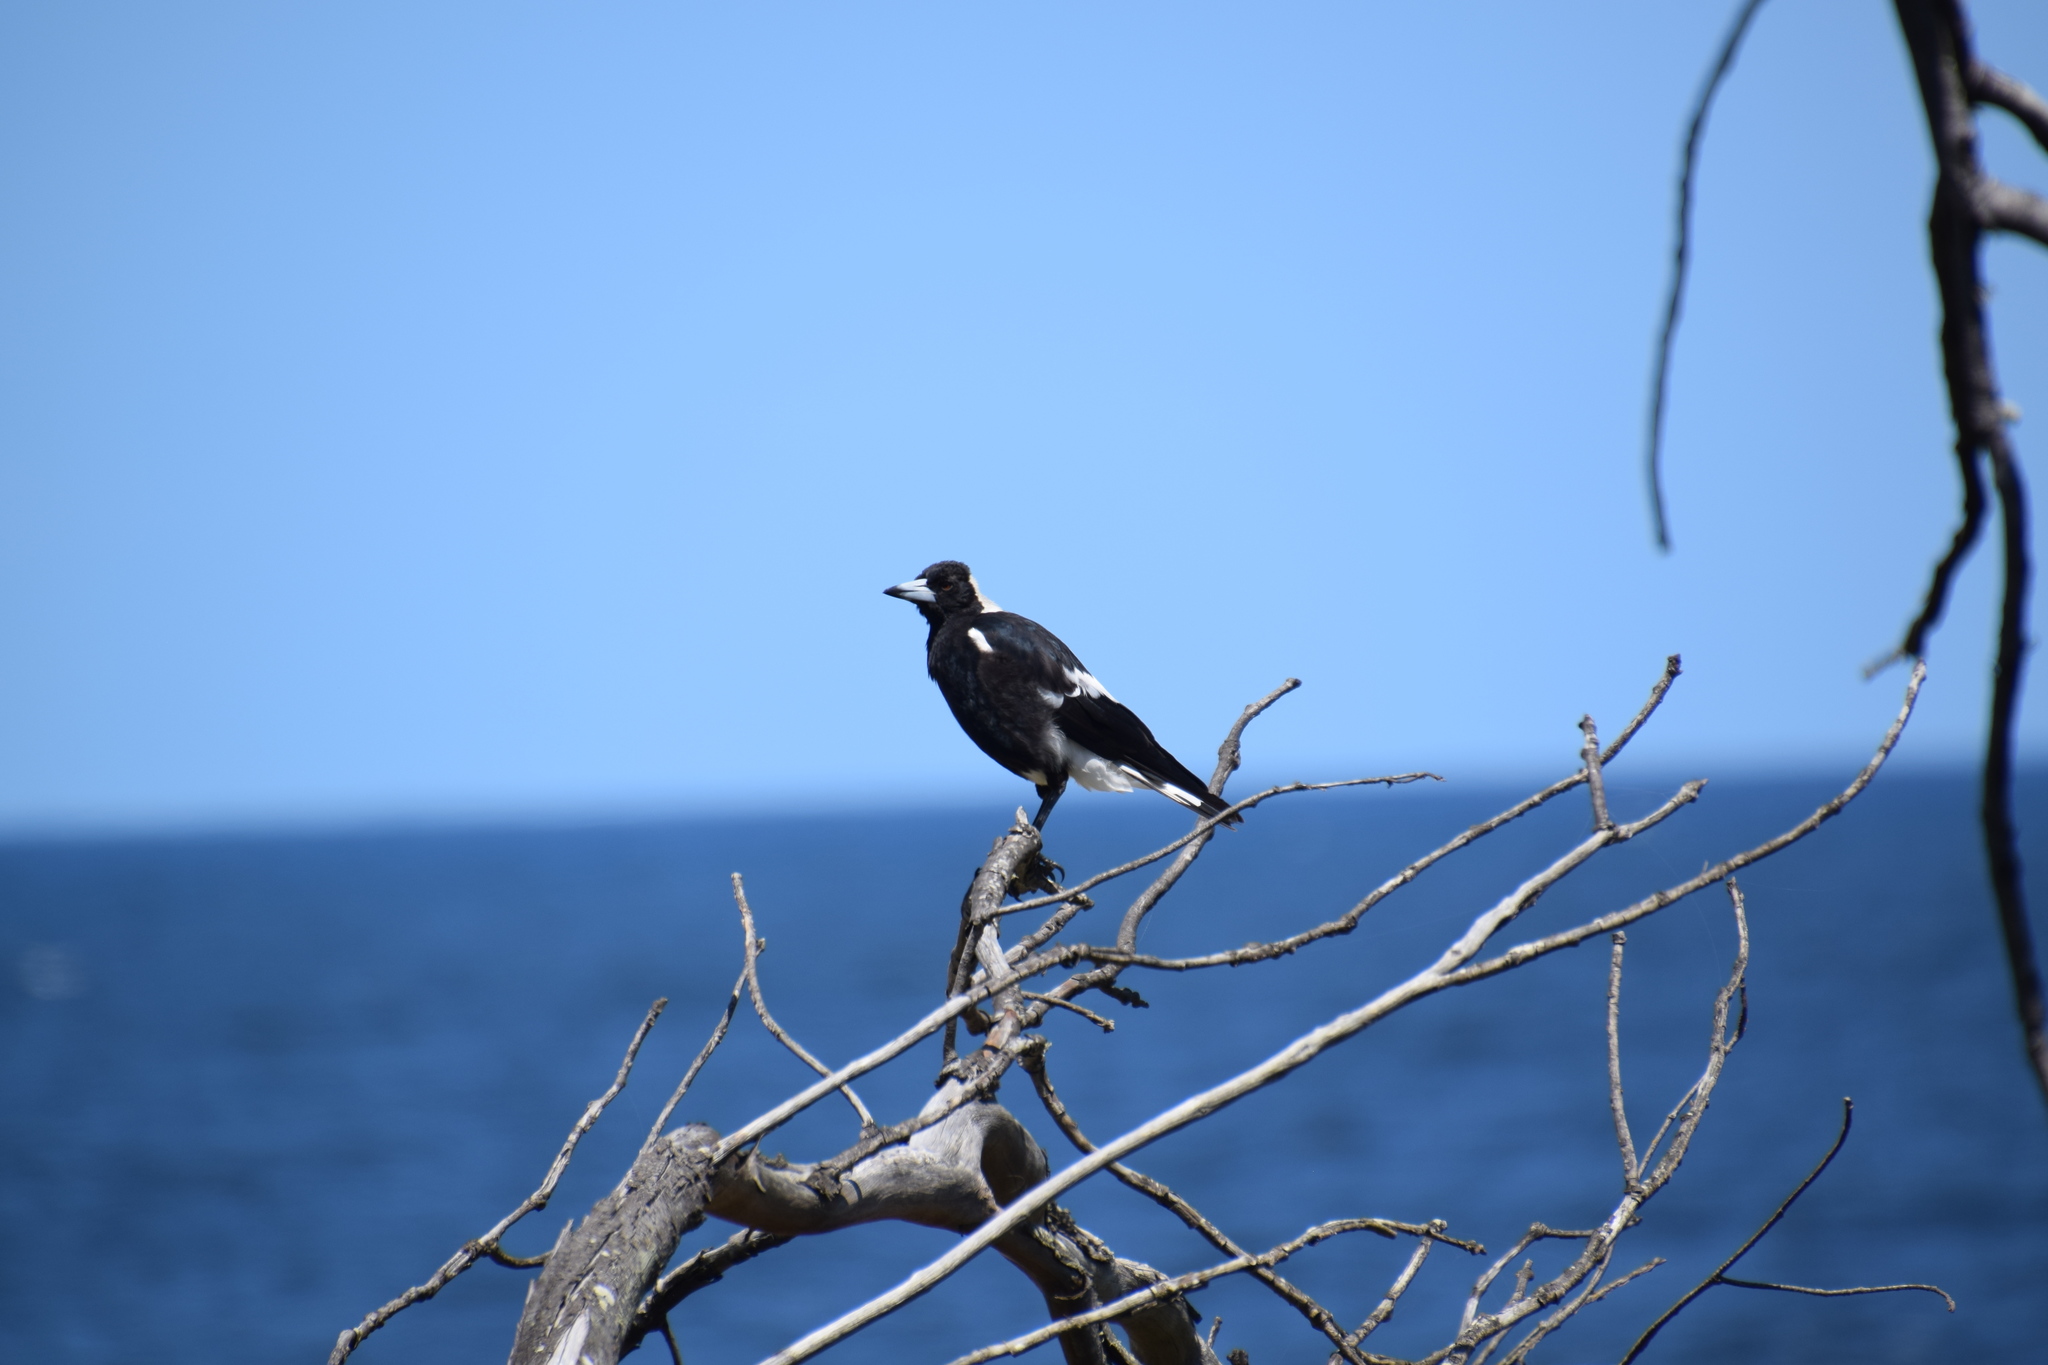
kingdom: Animalia
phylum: Chordata
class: Aves
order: Passeriformes
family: Cracticidae
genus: Gymnorhina
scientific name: Gymnorhina tibicen
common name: Australian magpie
